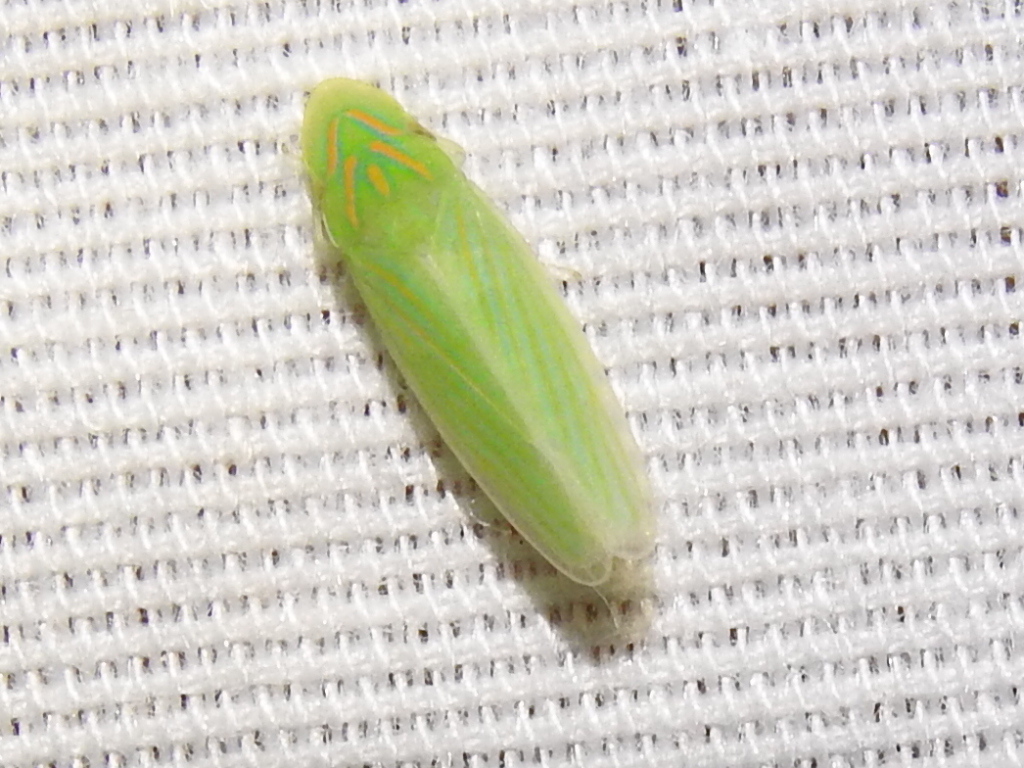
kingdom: Animalia
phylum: Arthropoda
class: Insecta
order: Hemiptera
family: Cicadellidae
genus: Spangbergiella
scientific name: Spangbergiella vulnerata
